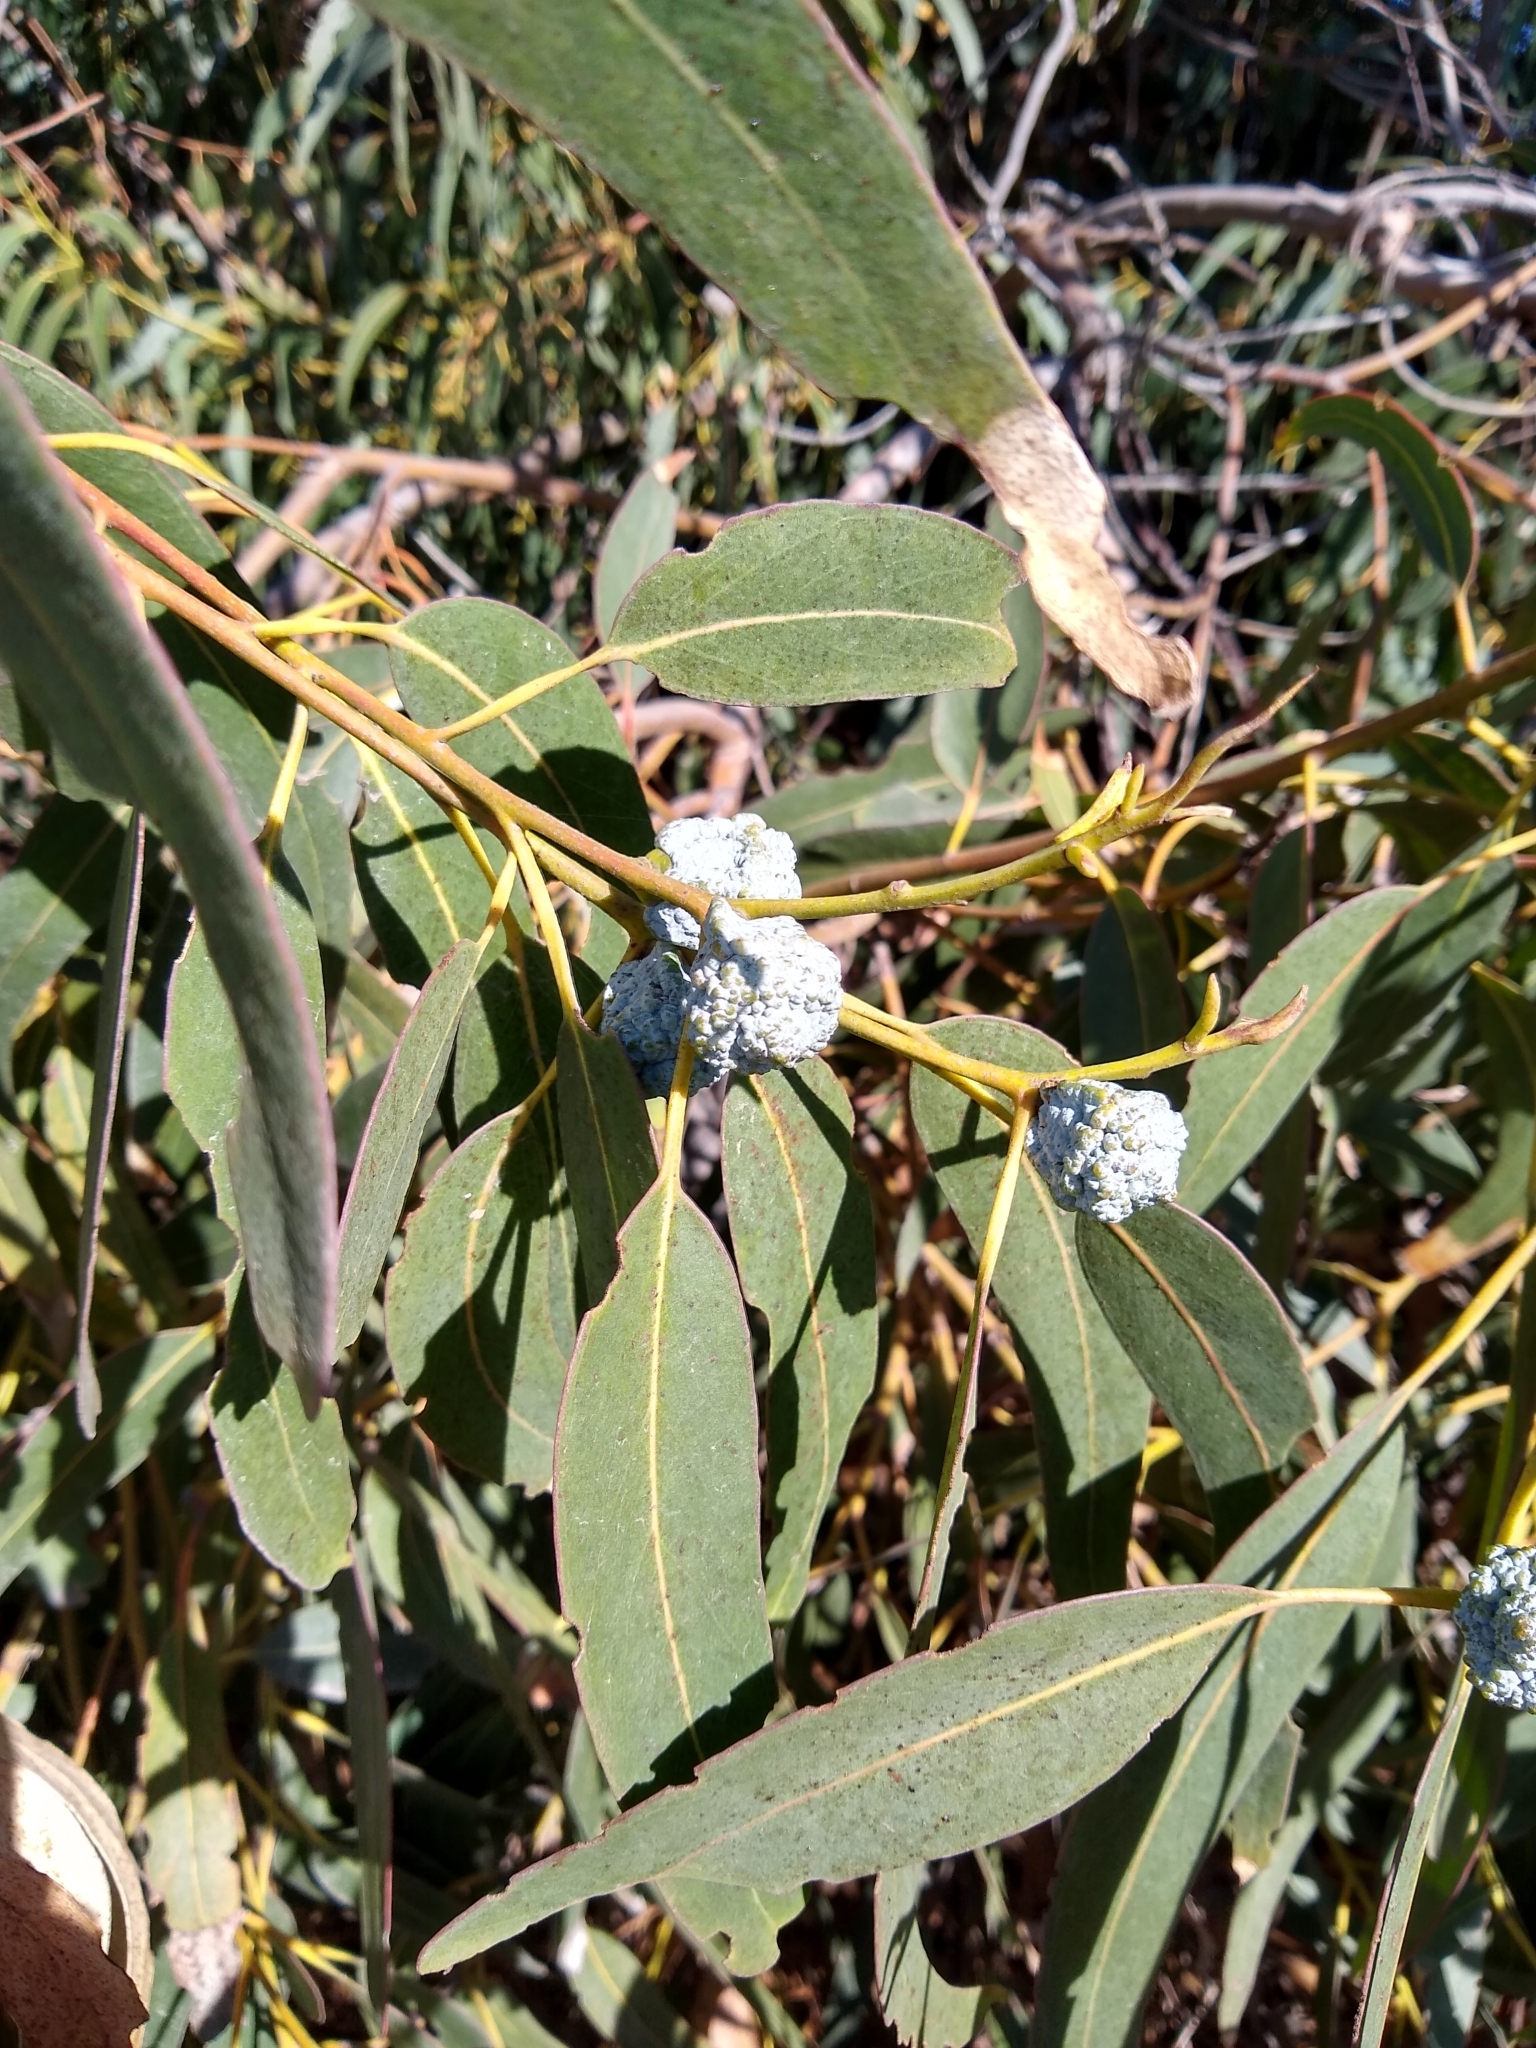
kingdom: Plantae
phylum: Tracheophyta
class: Magnoliopsida
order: Myrtales
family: Myrtaceae
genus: Eucalyptus
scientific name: Eucalyptus globulus
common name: Southern blue-gum
